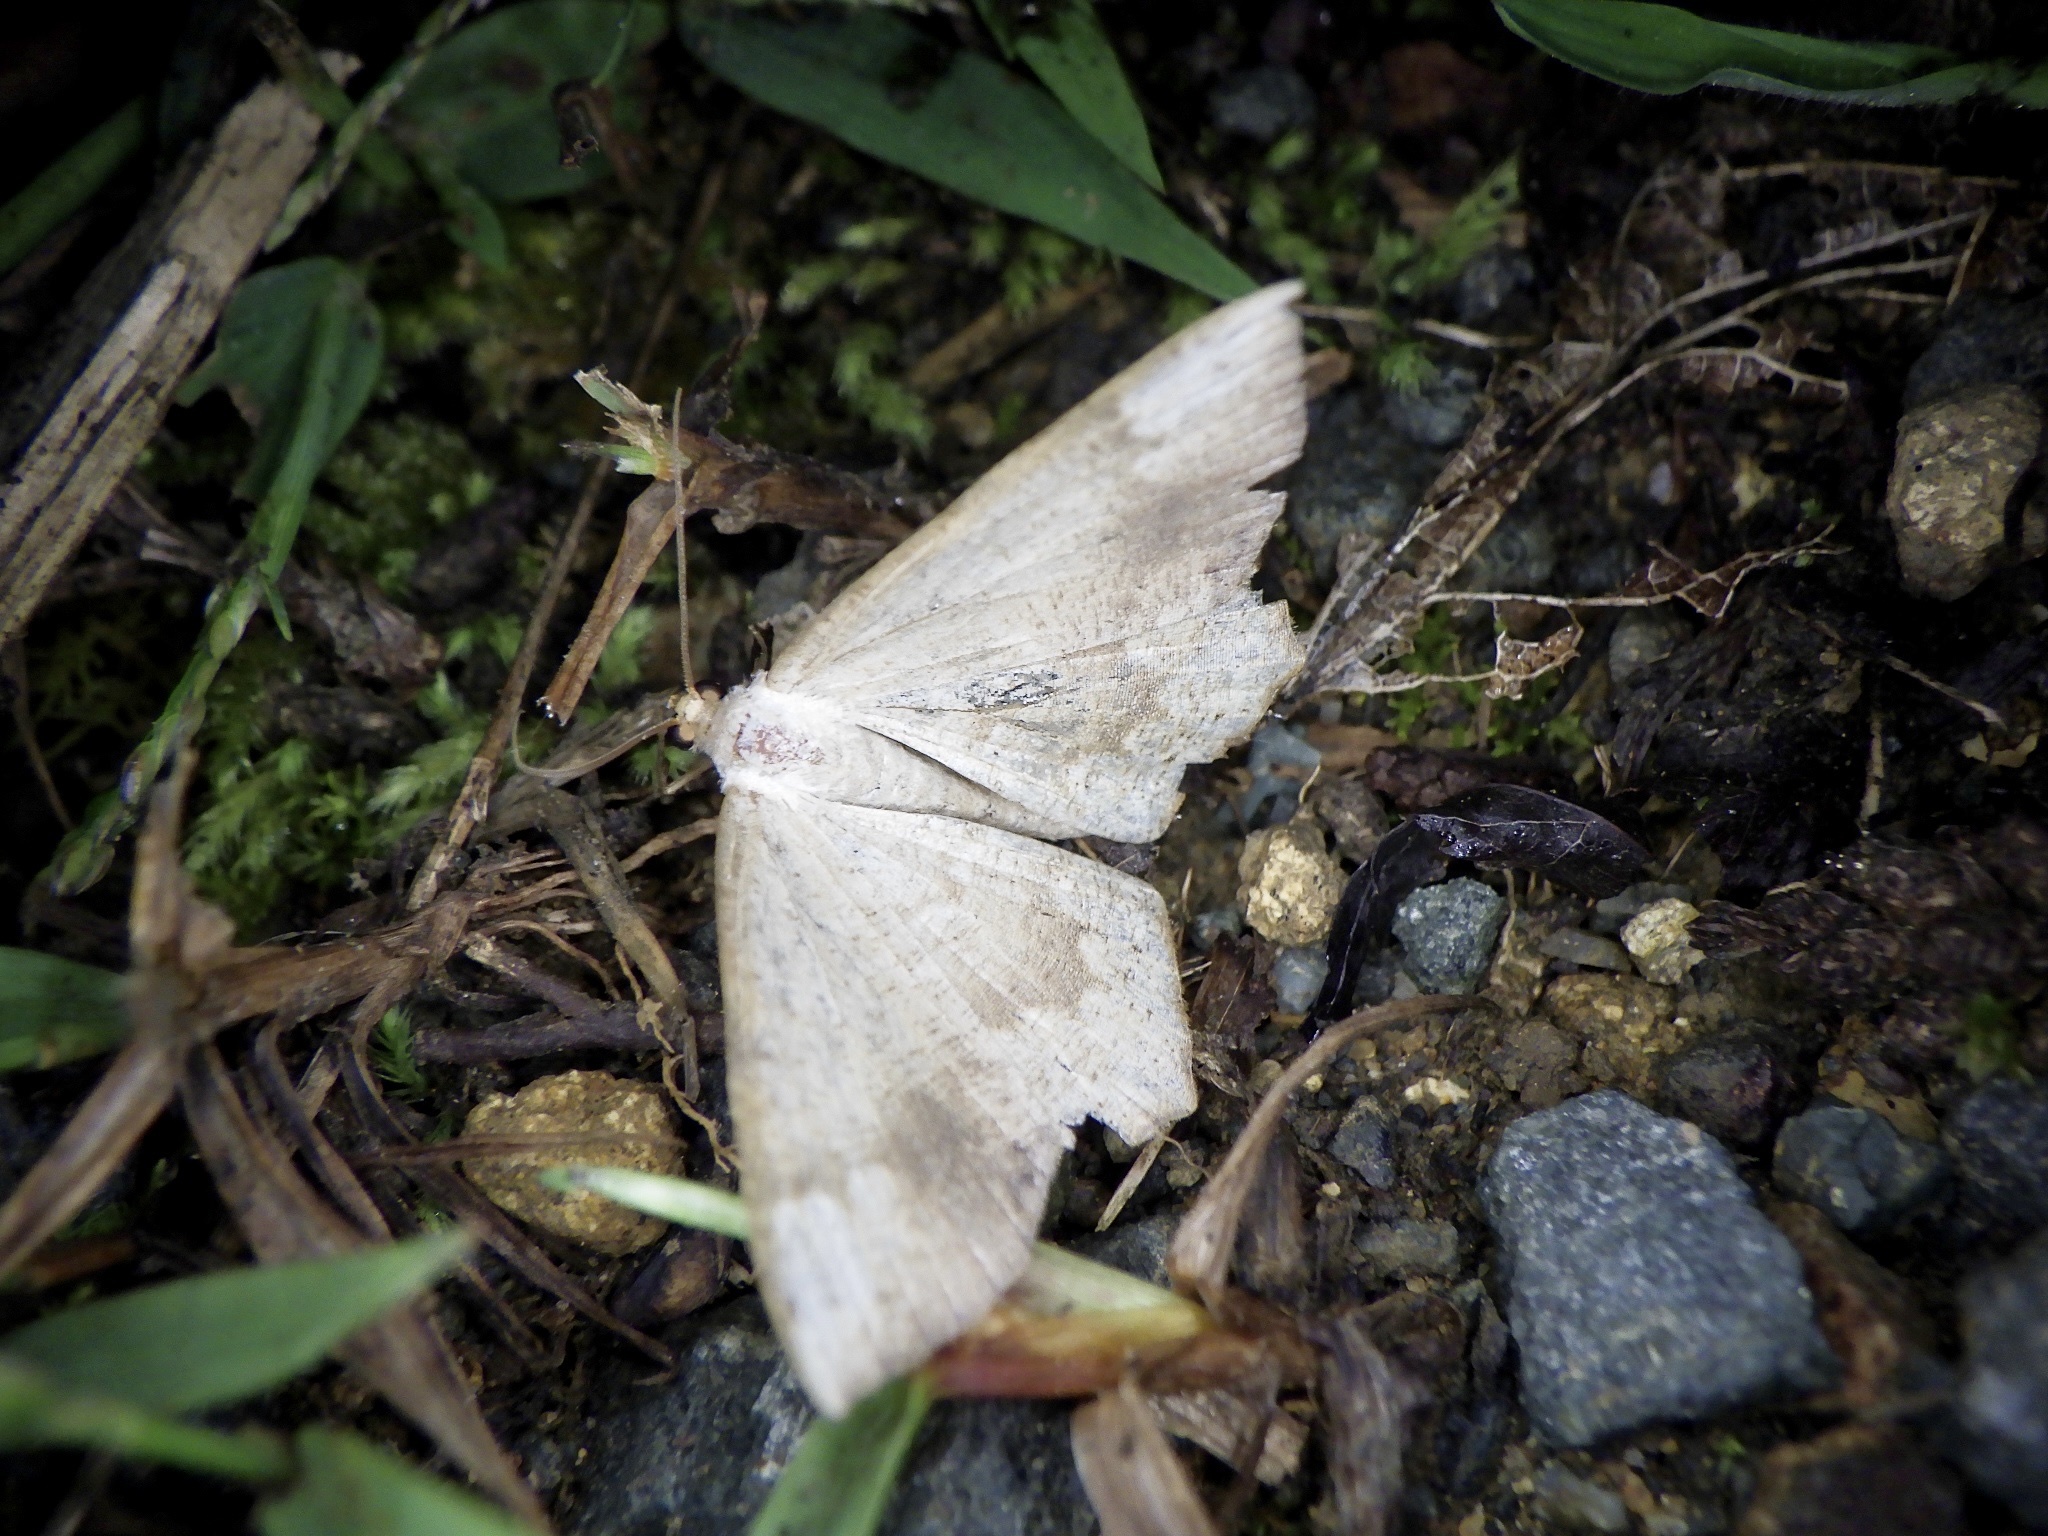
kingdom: Animalia
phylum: Arthropoda
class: Insecta
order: Lepidoptera
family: Geometridae
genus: Peratostega
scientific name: Peratostega deletaria
